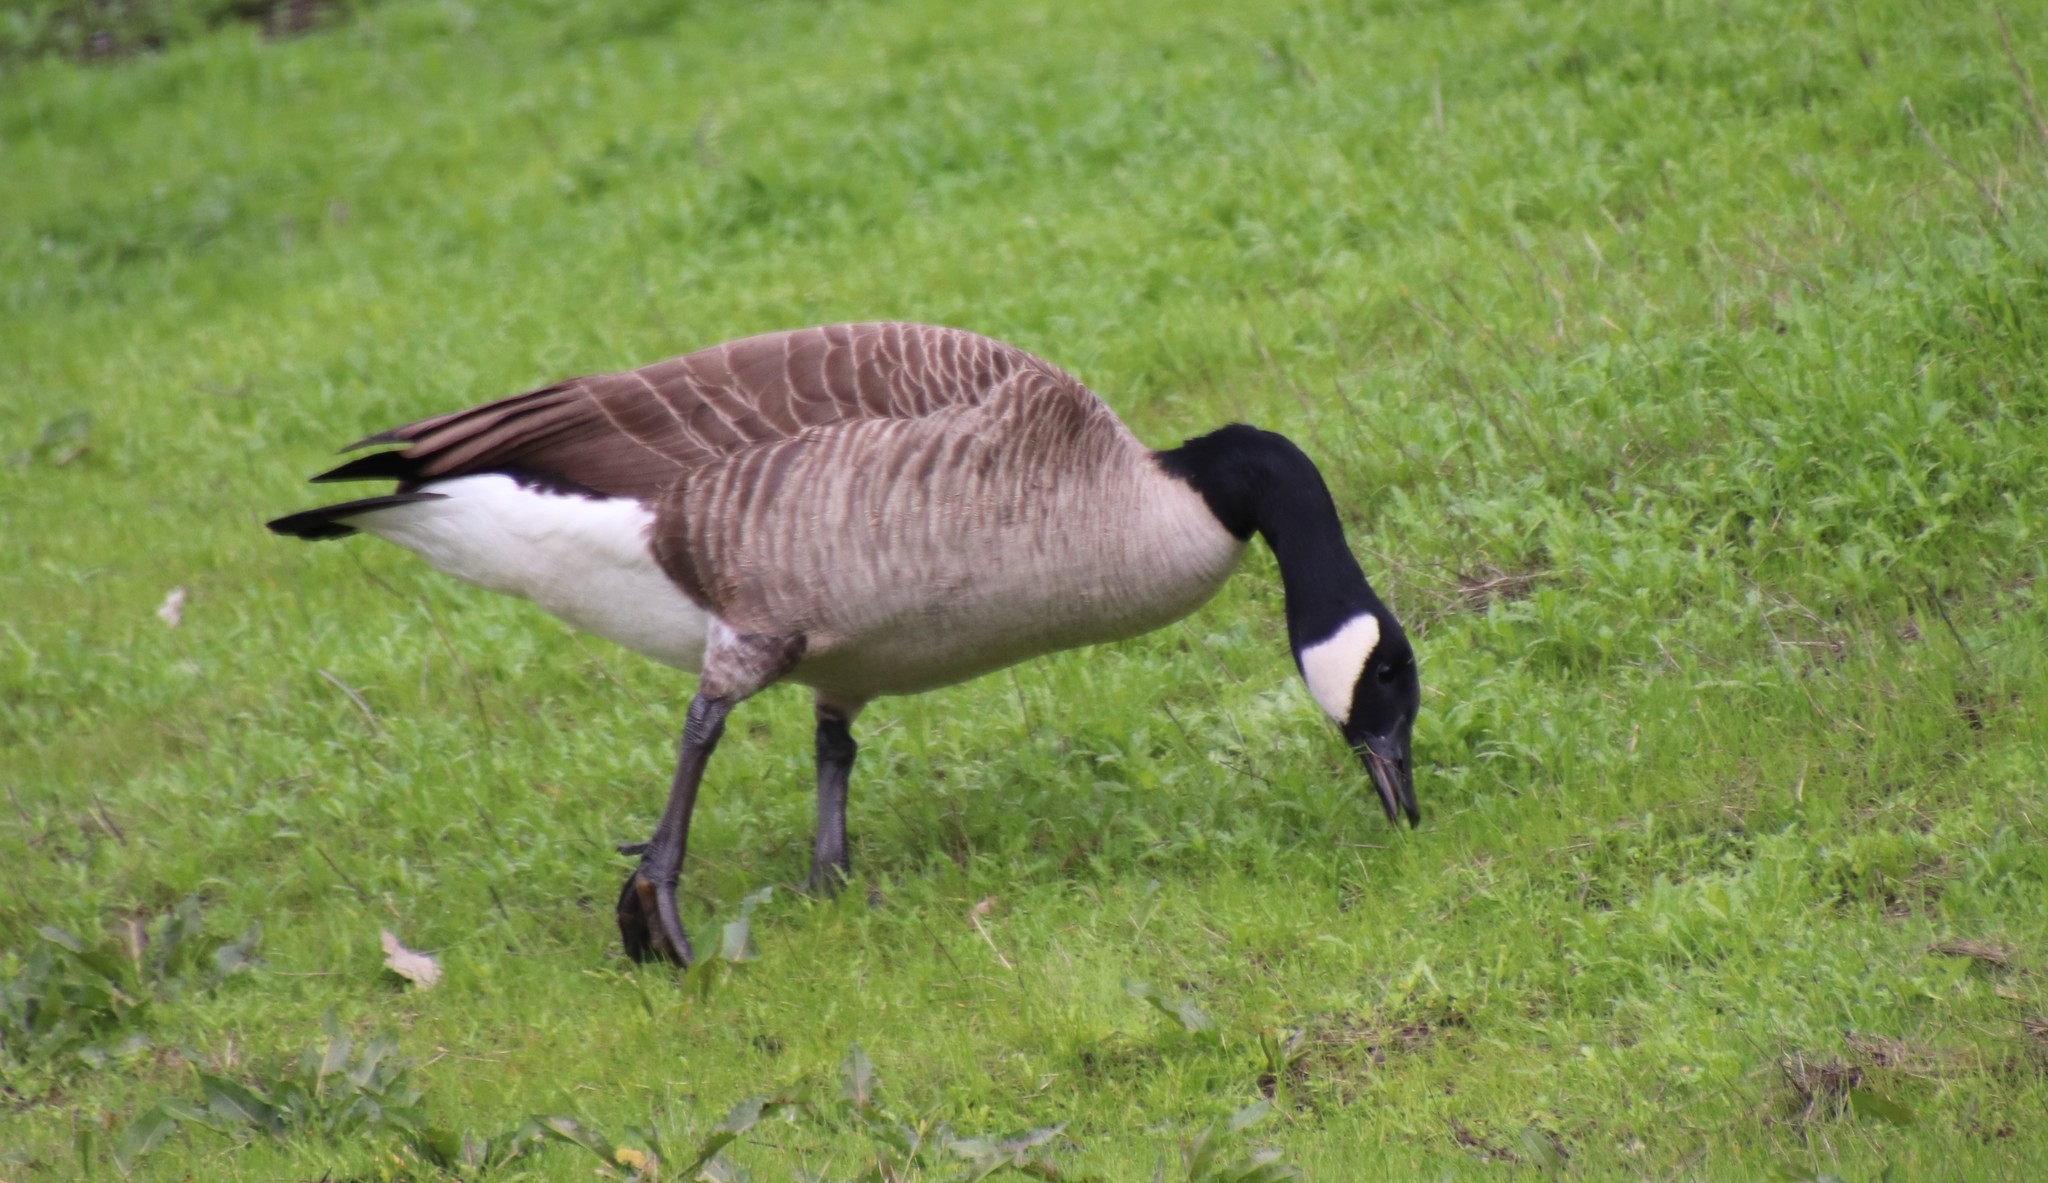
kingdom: Animalia
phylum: Chordata
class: Aves
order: Anseriformes
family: Anatidae
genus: Branta
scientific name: Branta canadensis
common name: Canada goose
